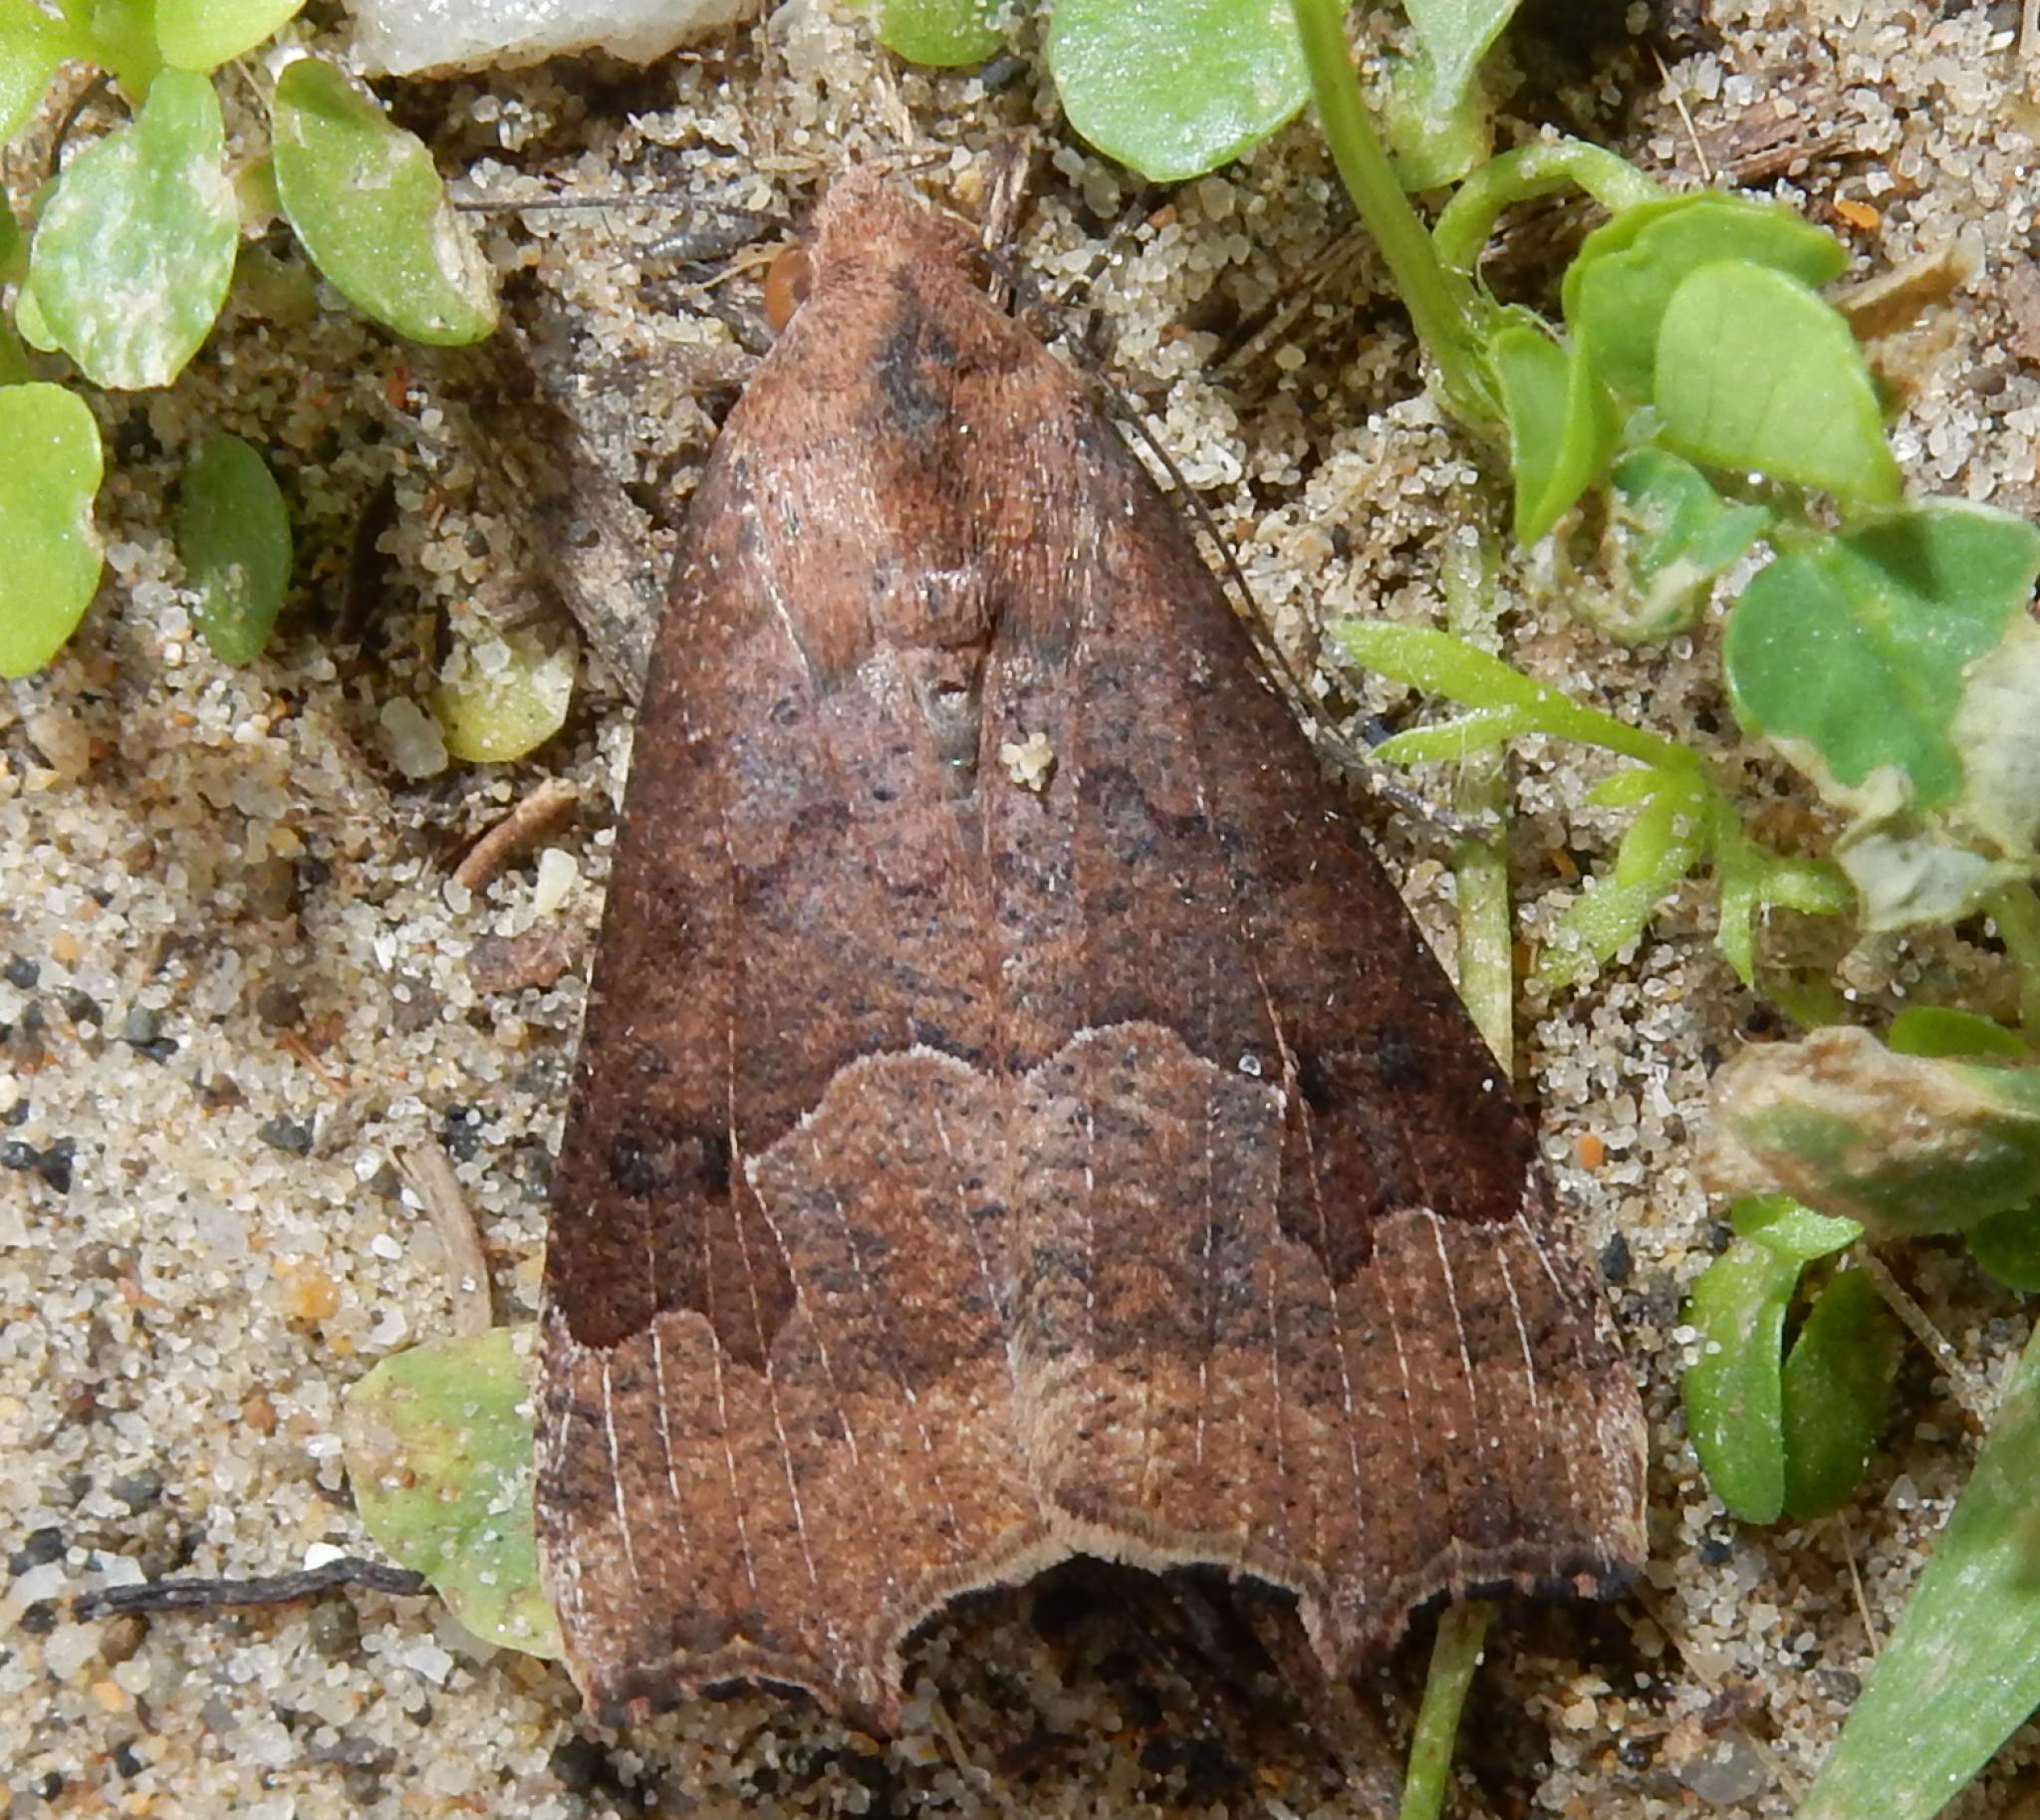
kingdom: Animalia
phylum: Arthropoda
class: Insecta
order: Lepidoptera
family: Erebidae
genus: Anomis
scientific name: Anomis sabulifera
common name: Angled gem
